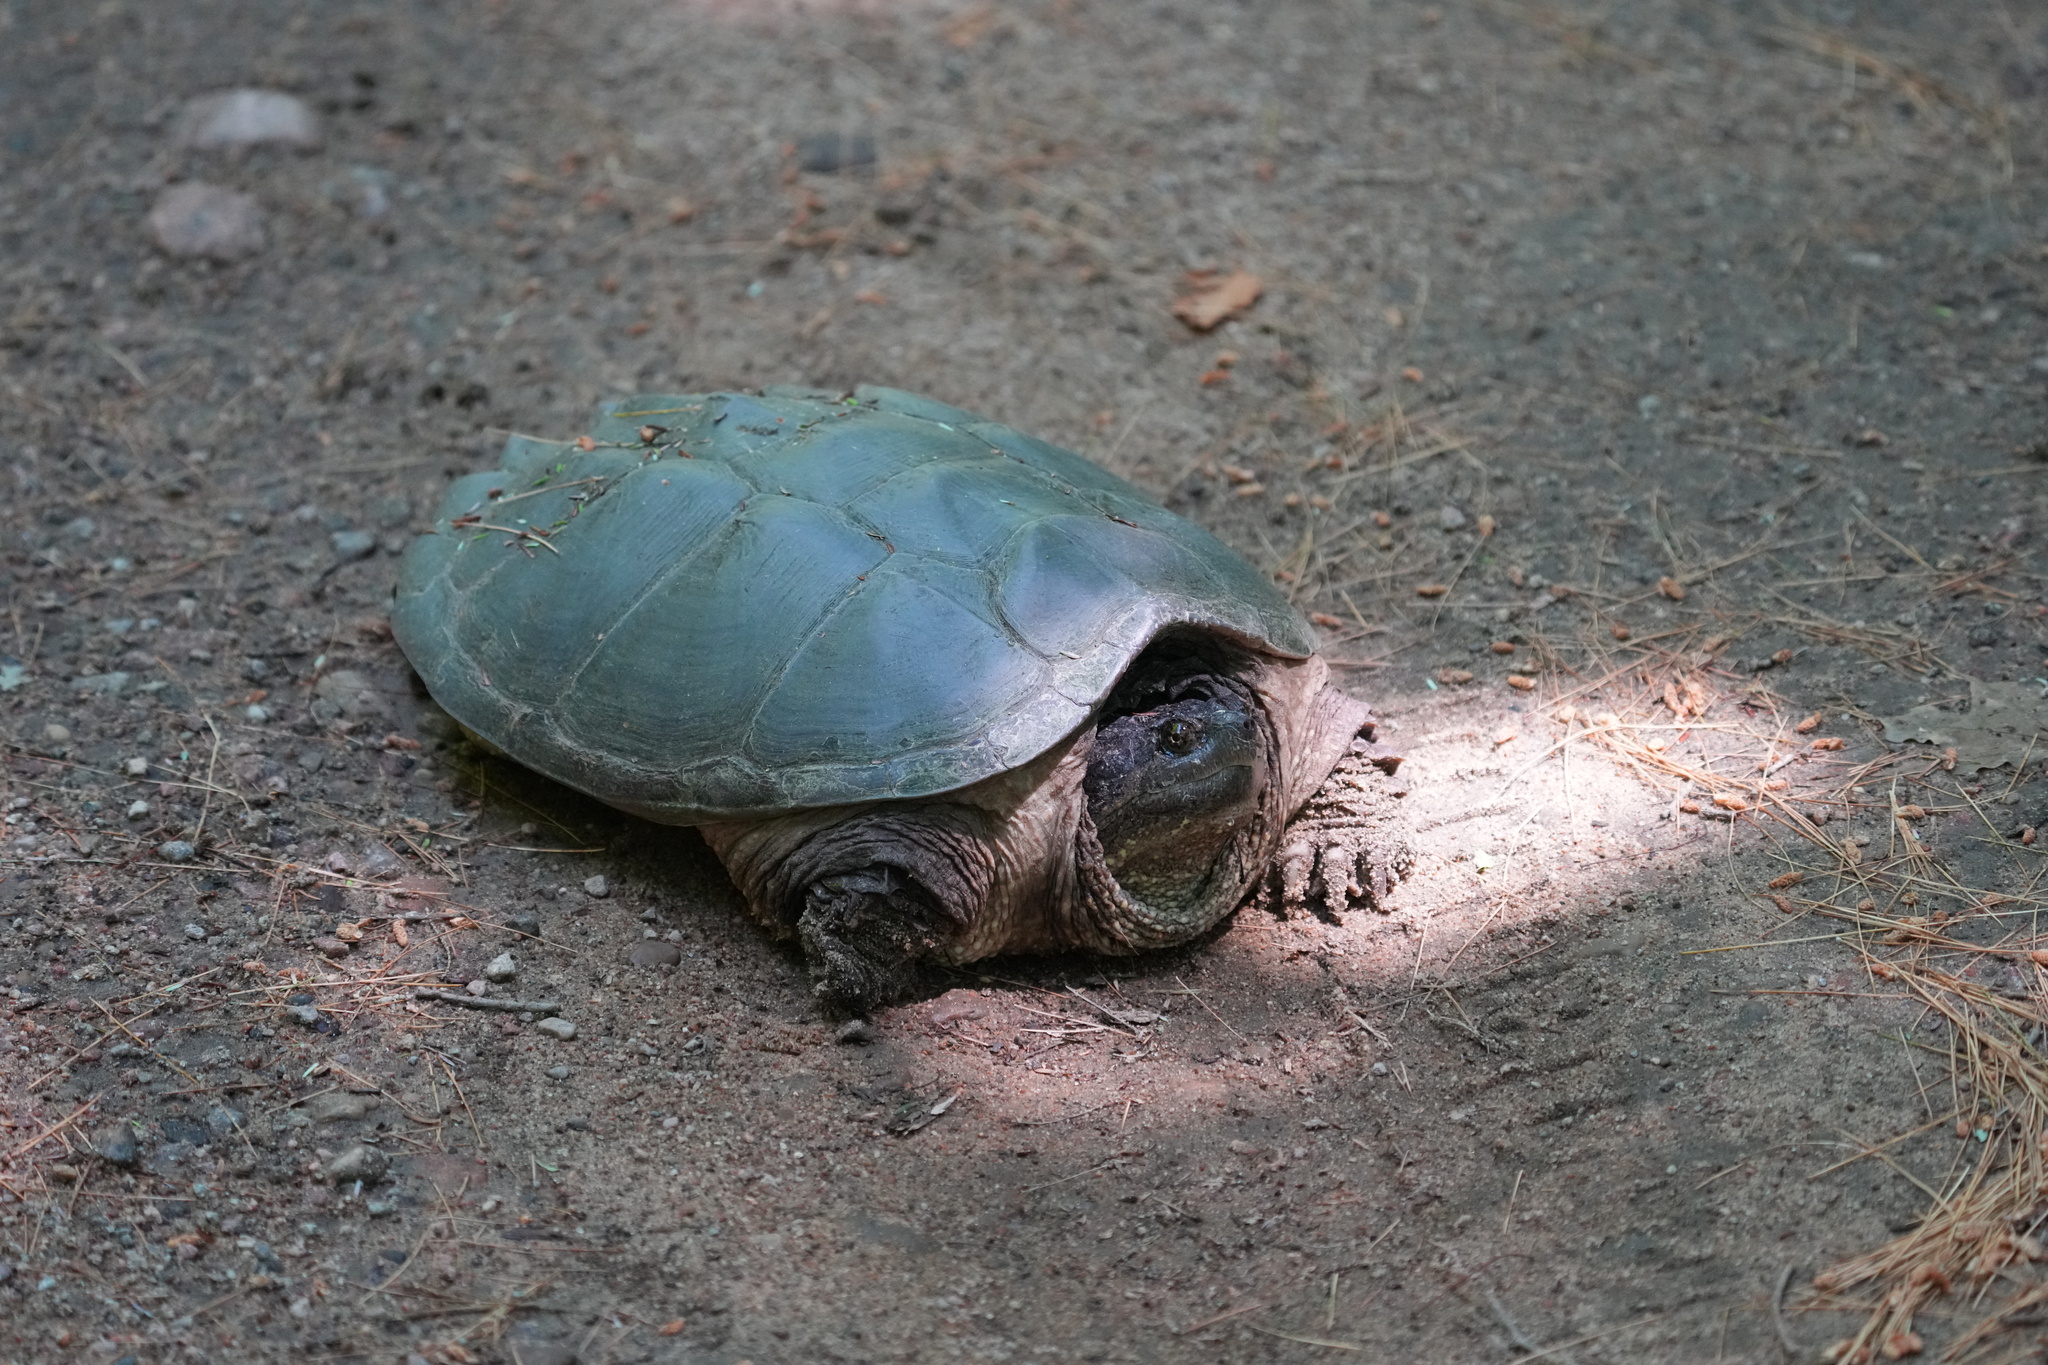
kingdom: Animalia
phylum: Chordata
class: Testudines
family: Chelydridae
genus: Chelydra
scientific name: Chelydra serpentina
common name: Common snapping turtle
